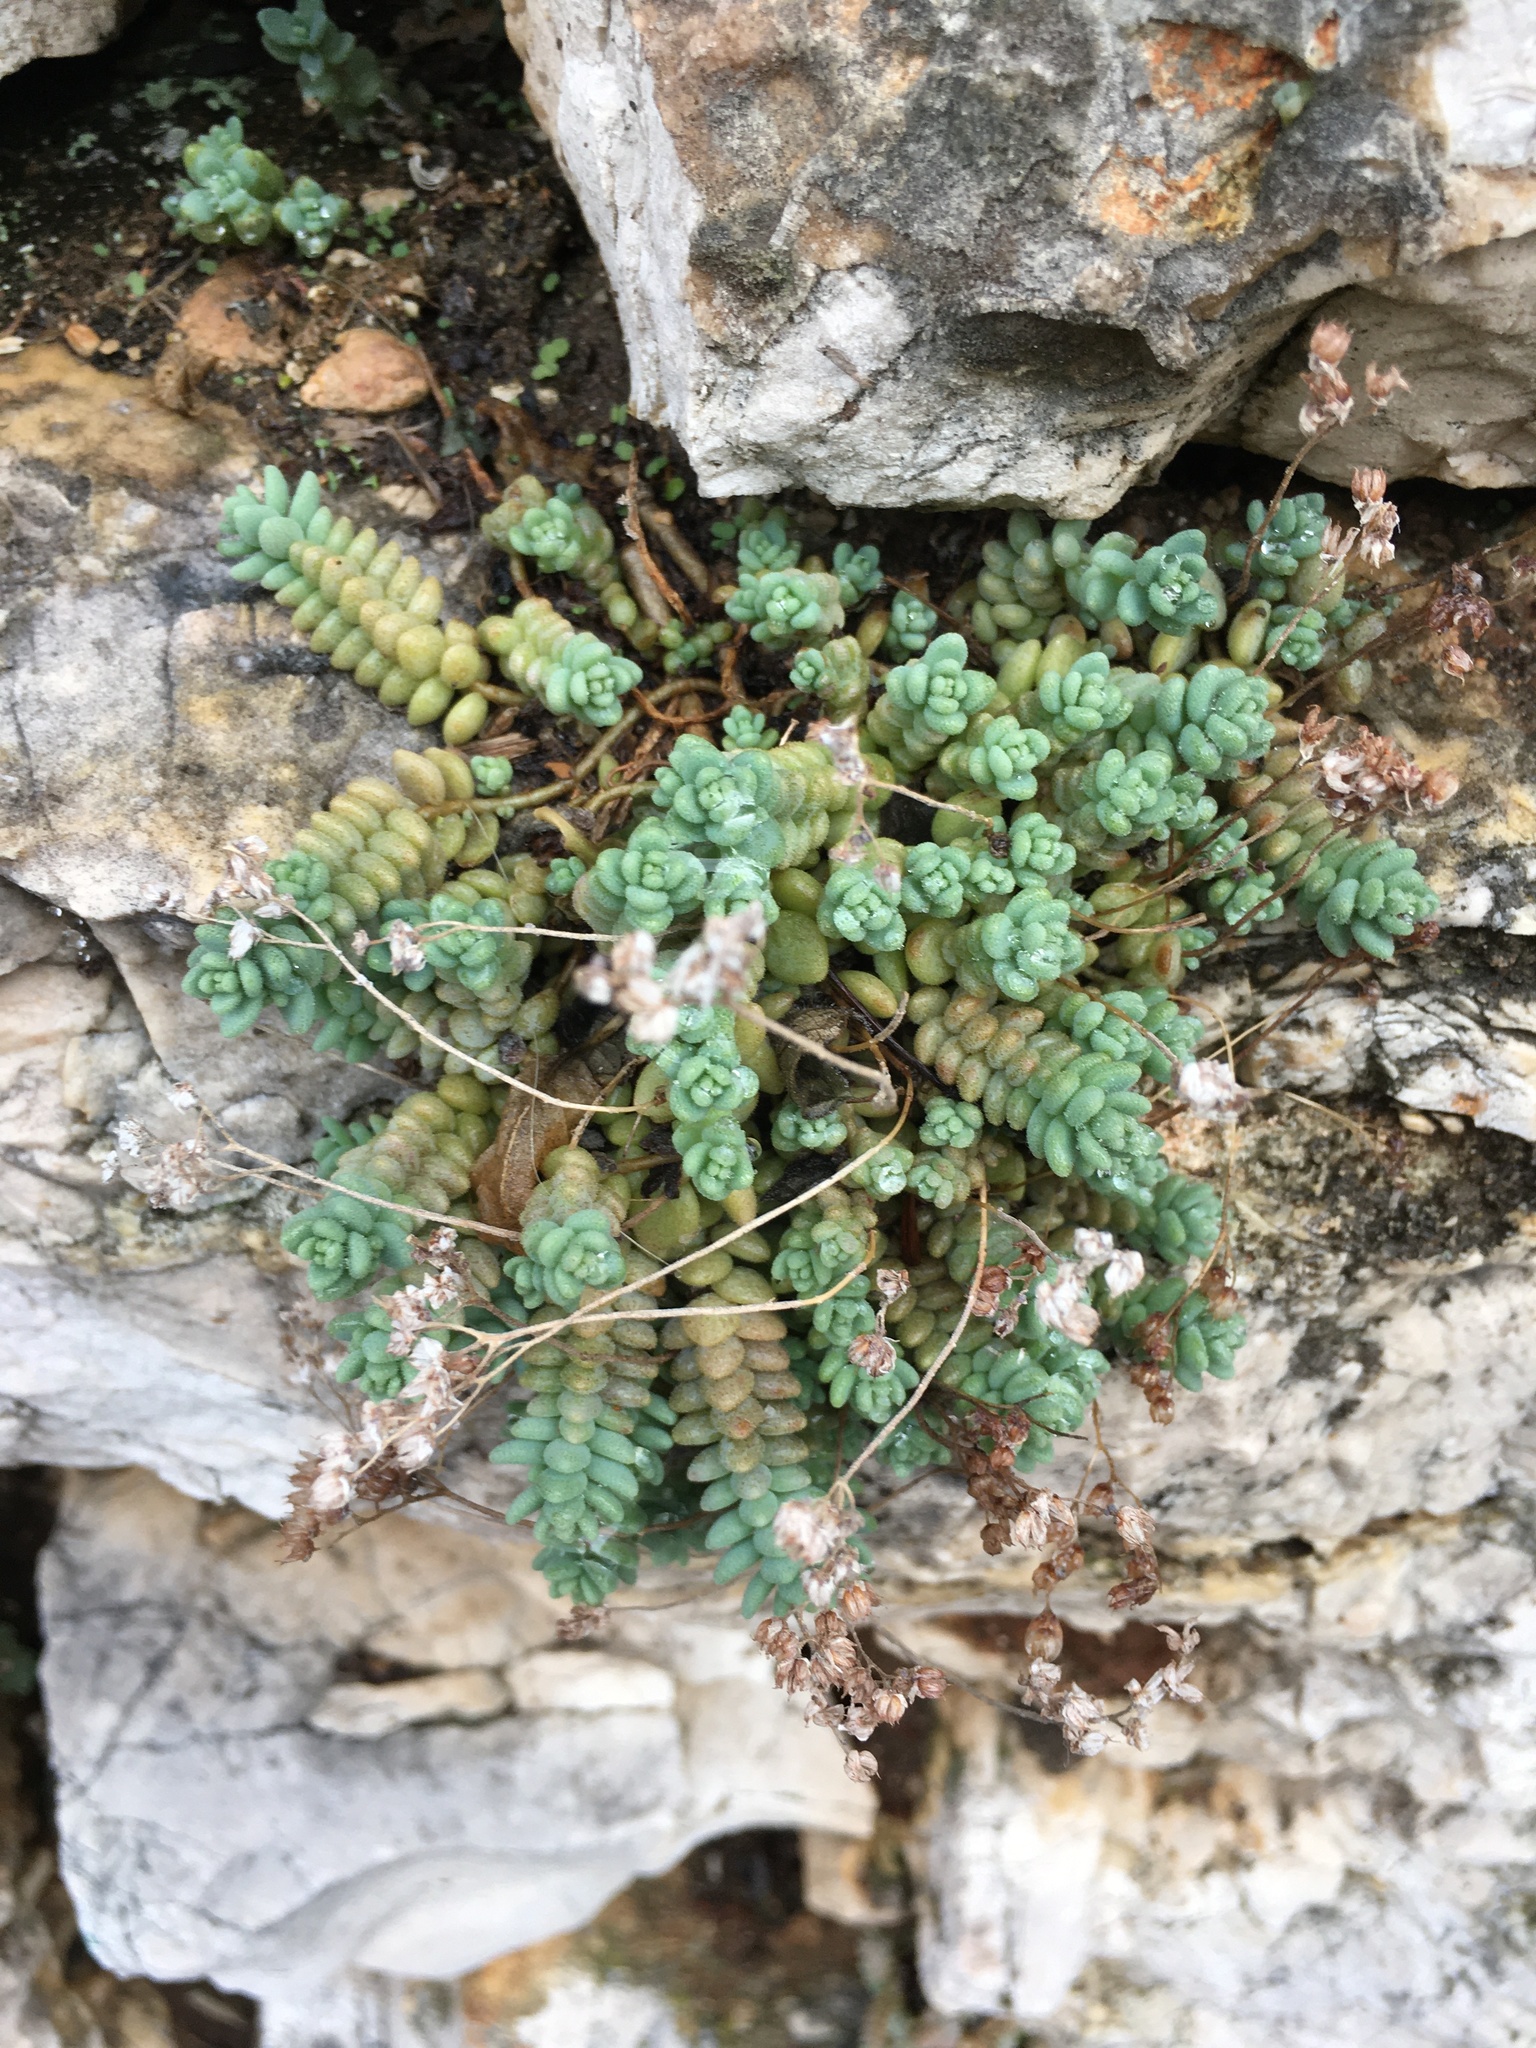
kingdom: Plantae
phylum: Tracheophyta
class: Magnoliopsida
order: Saxifragales
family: Crassulaceae
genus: Sedum
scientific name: Sedum dasyphyllum
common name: Thick-leaf stonecrop
